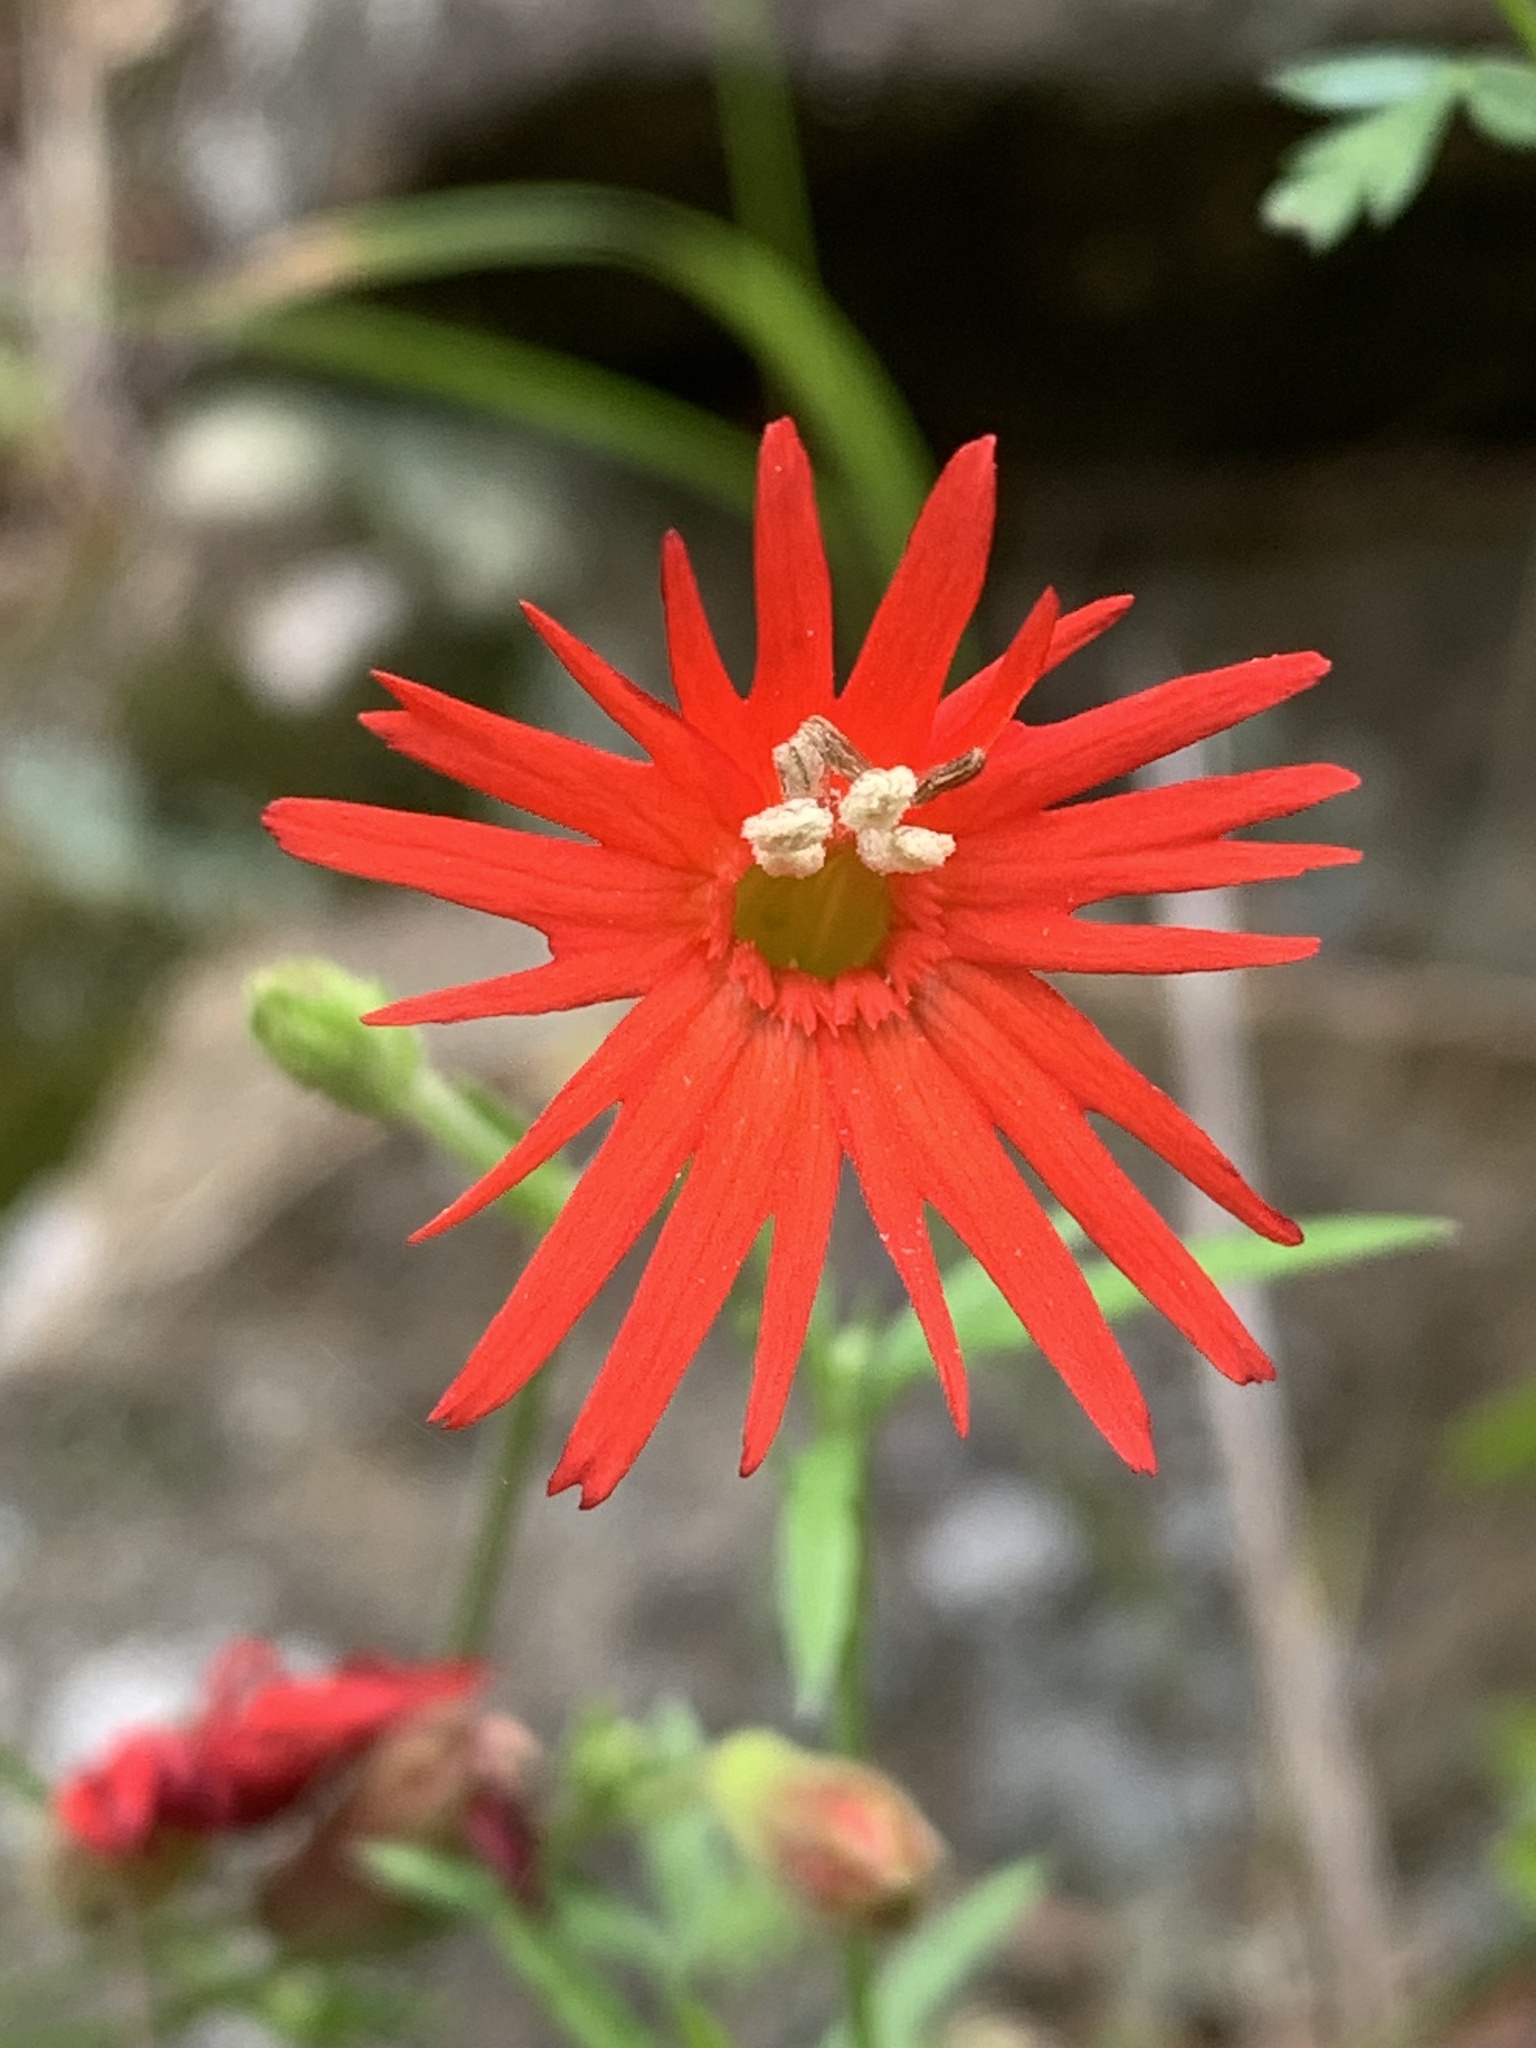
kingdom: Plantae
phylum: Tracheophyta
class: Magnoliopsida
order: Caryophyllales
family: Caryophyllaceae
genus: Silene
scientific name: Silene laciniata
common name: Indian-pink
